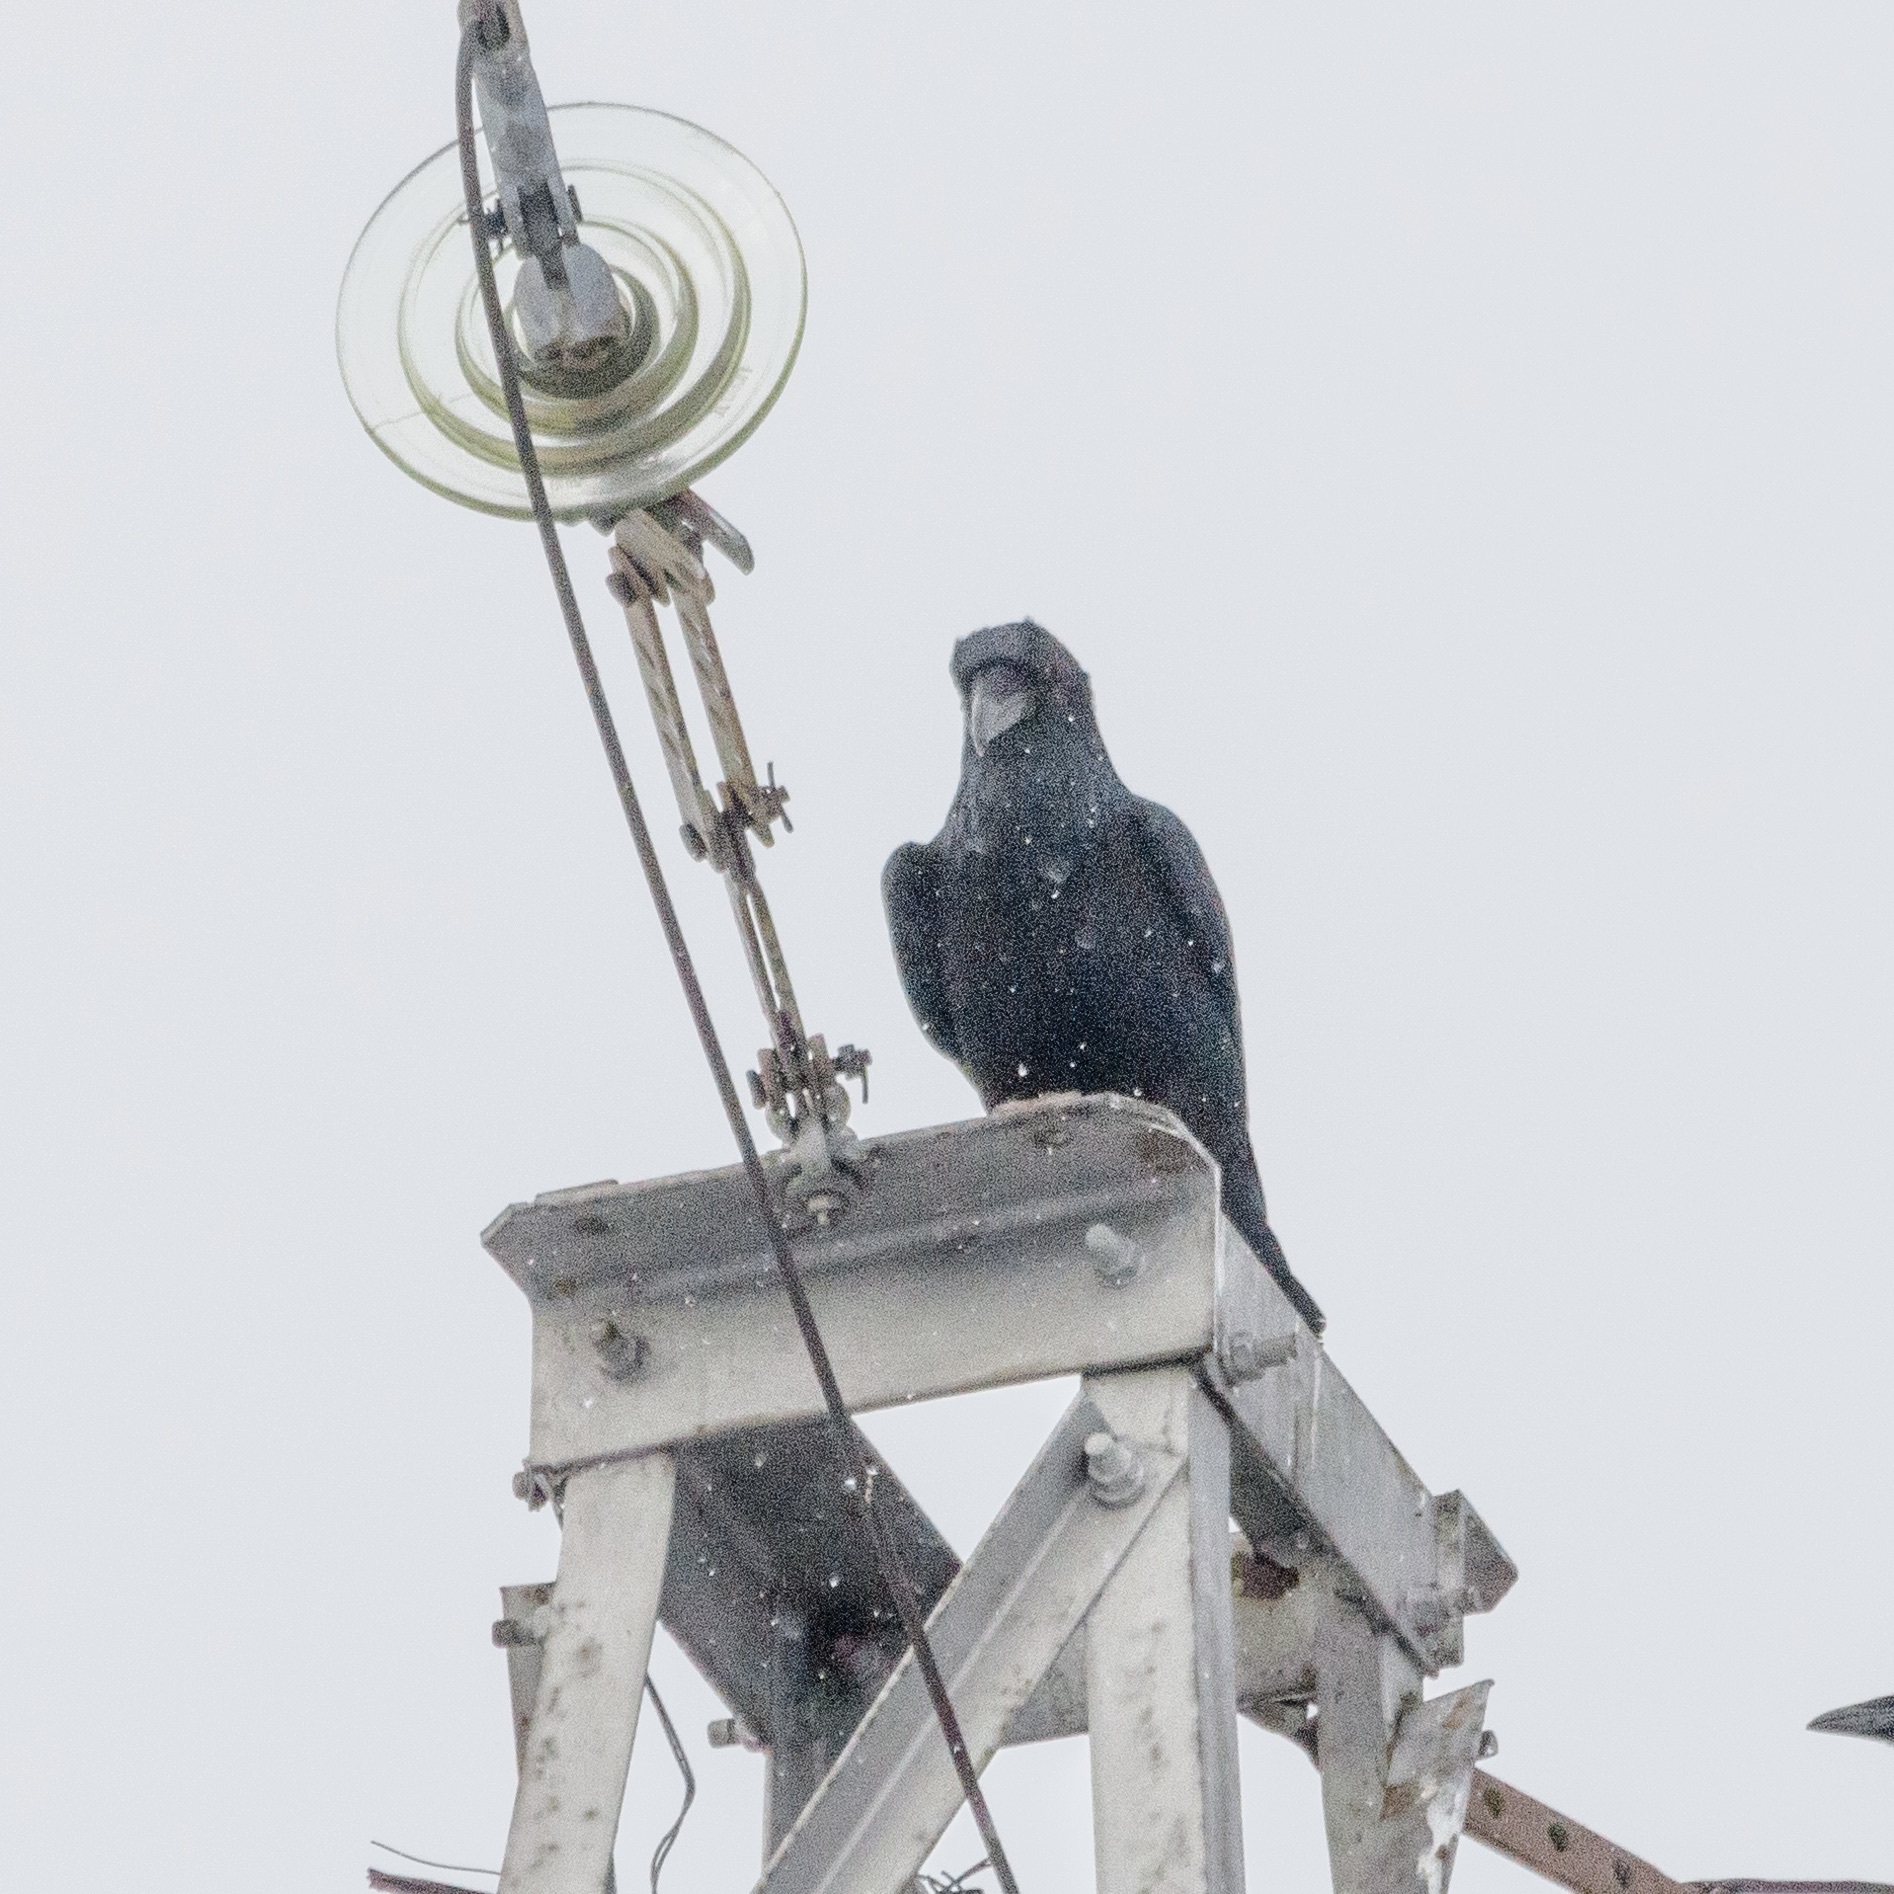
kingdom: Animalia
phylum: Chordata
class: Aves
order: Passeriformes
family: Corvidae
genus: Corvus
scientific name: Corvus corax
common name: Common raven
